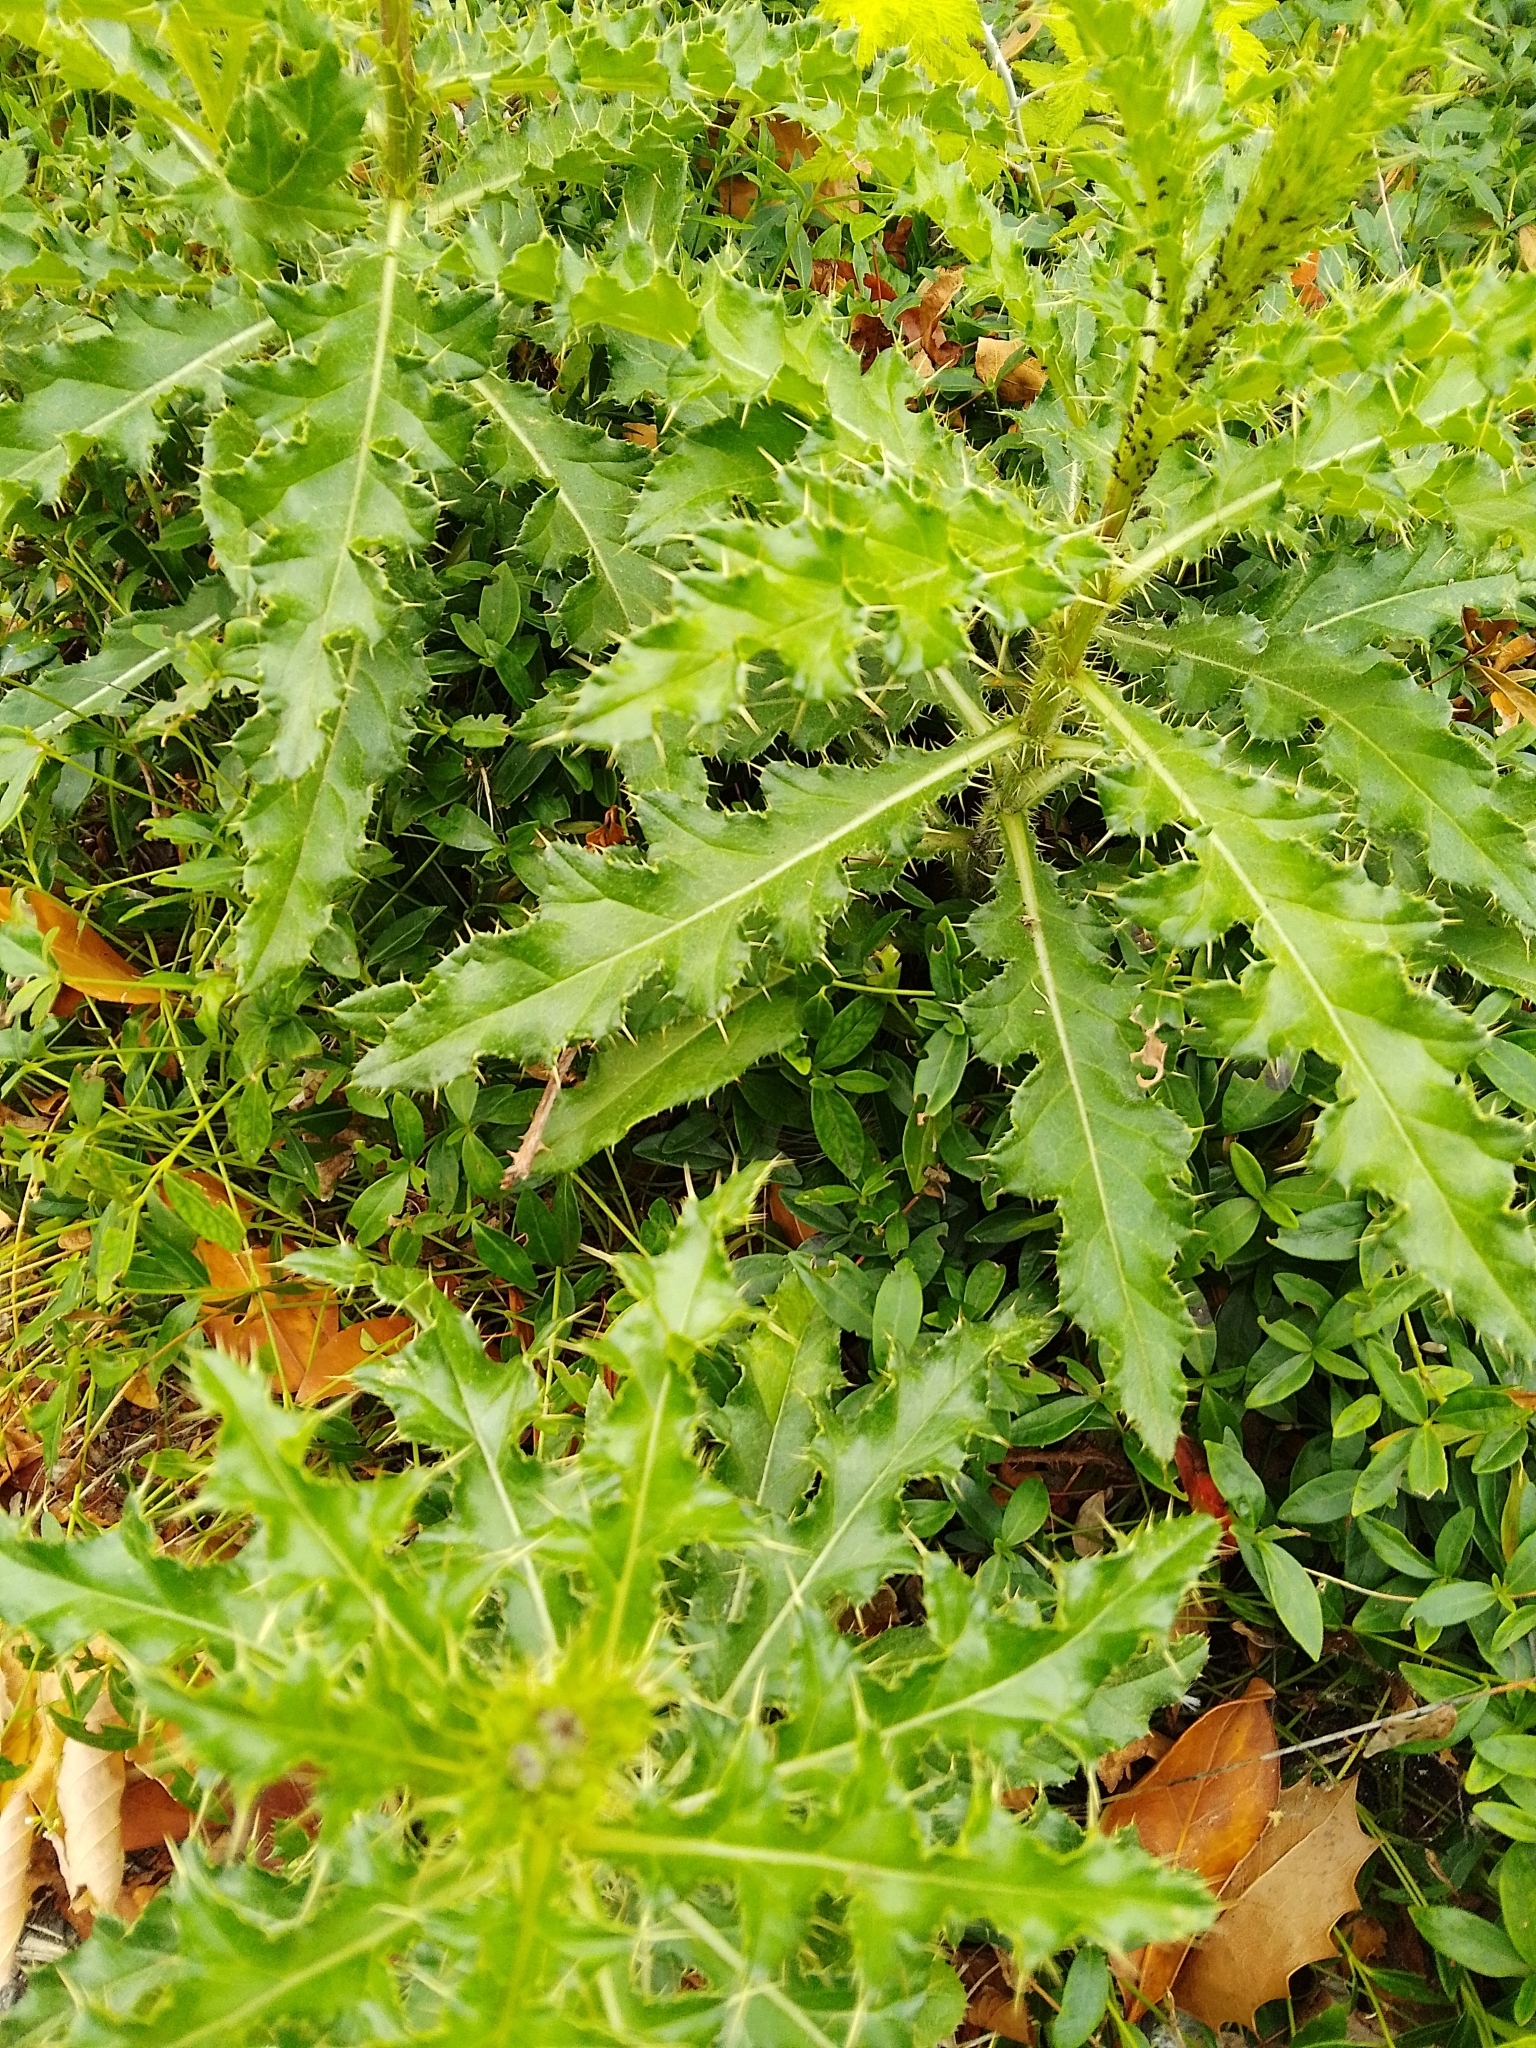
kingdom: Plantae
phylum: Tracheophyta
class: Magnoliopsida
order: Asterales
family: Asteraceae
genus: Cirsium
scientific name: Cirsium arvense
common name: Creeping thistle
